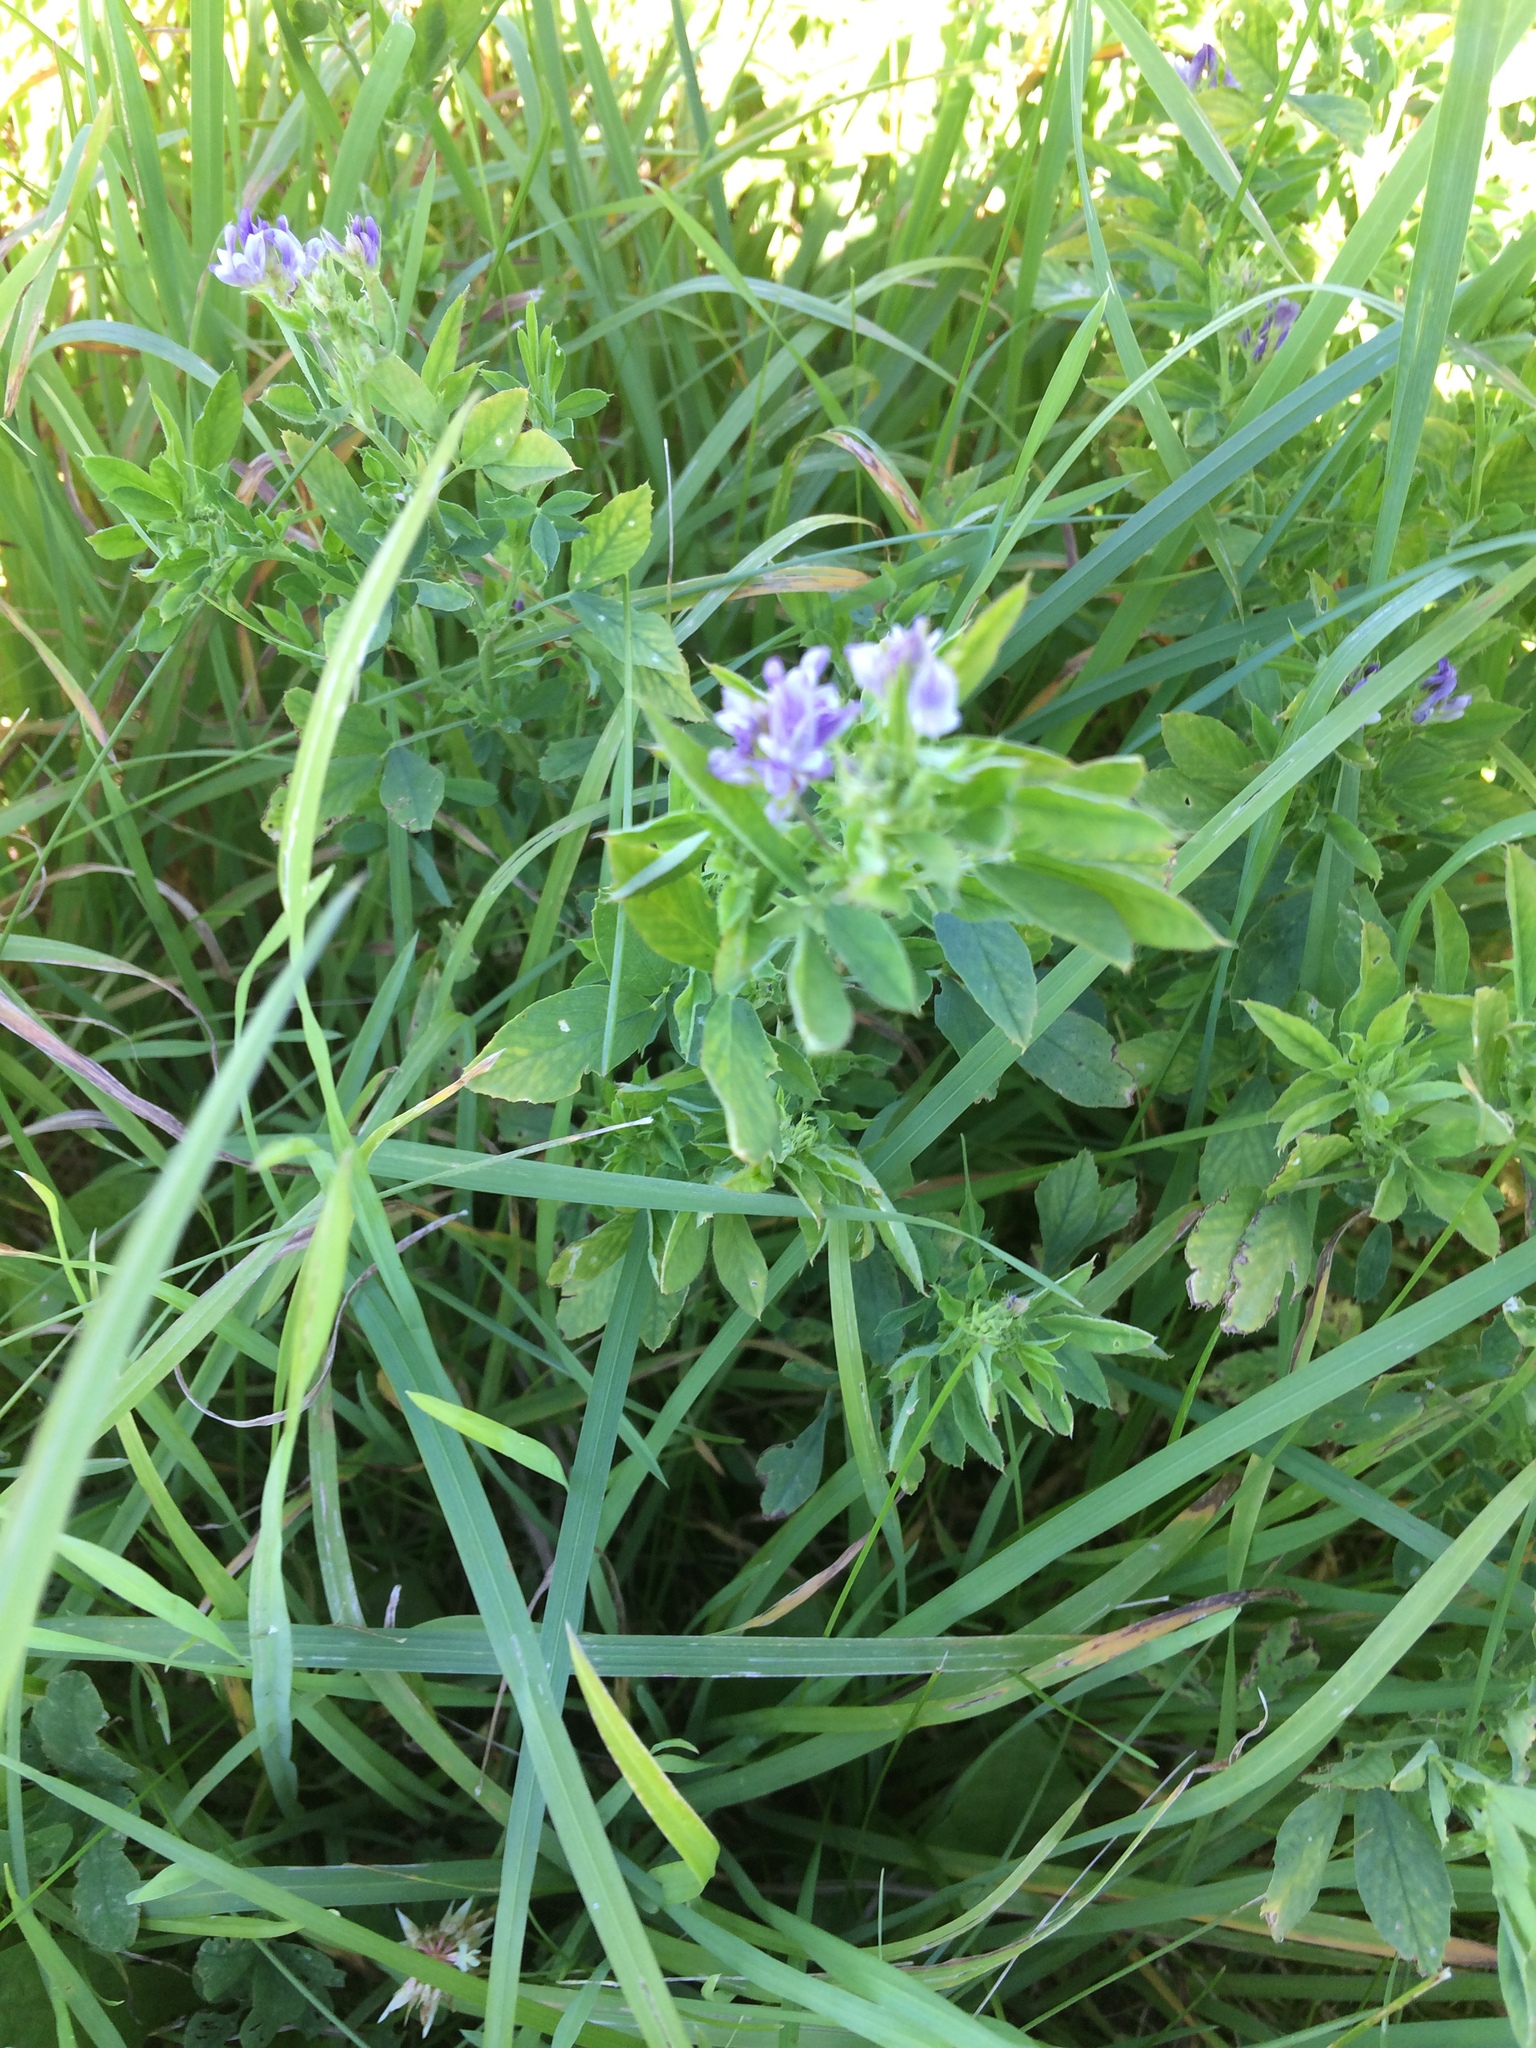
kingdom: Plantae
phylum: Tracheophyta
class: Magnoliopsida
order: Fabales
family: Fabaceae
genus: Medicago
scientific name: Medicago sativa
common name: Alfalfa
